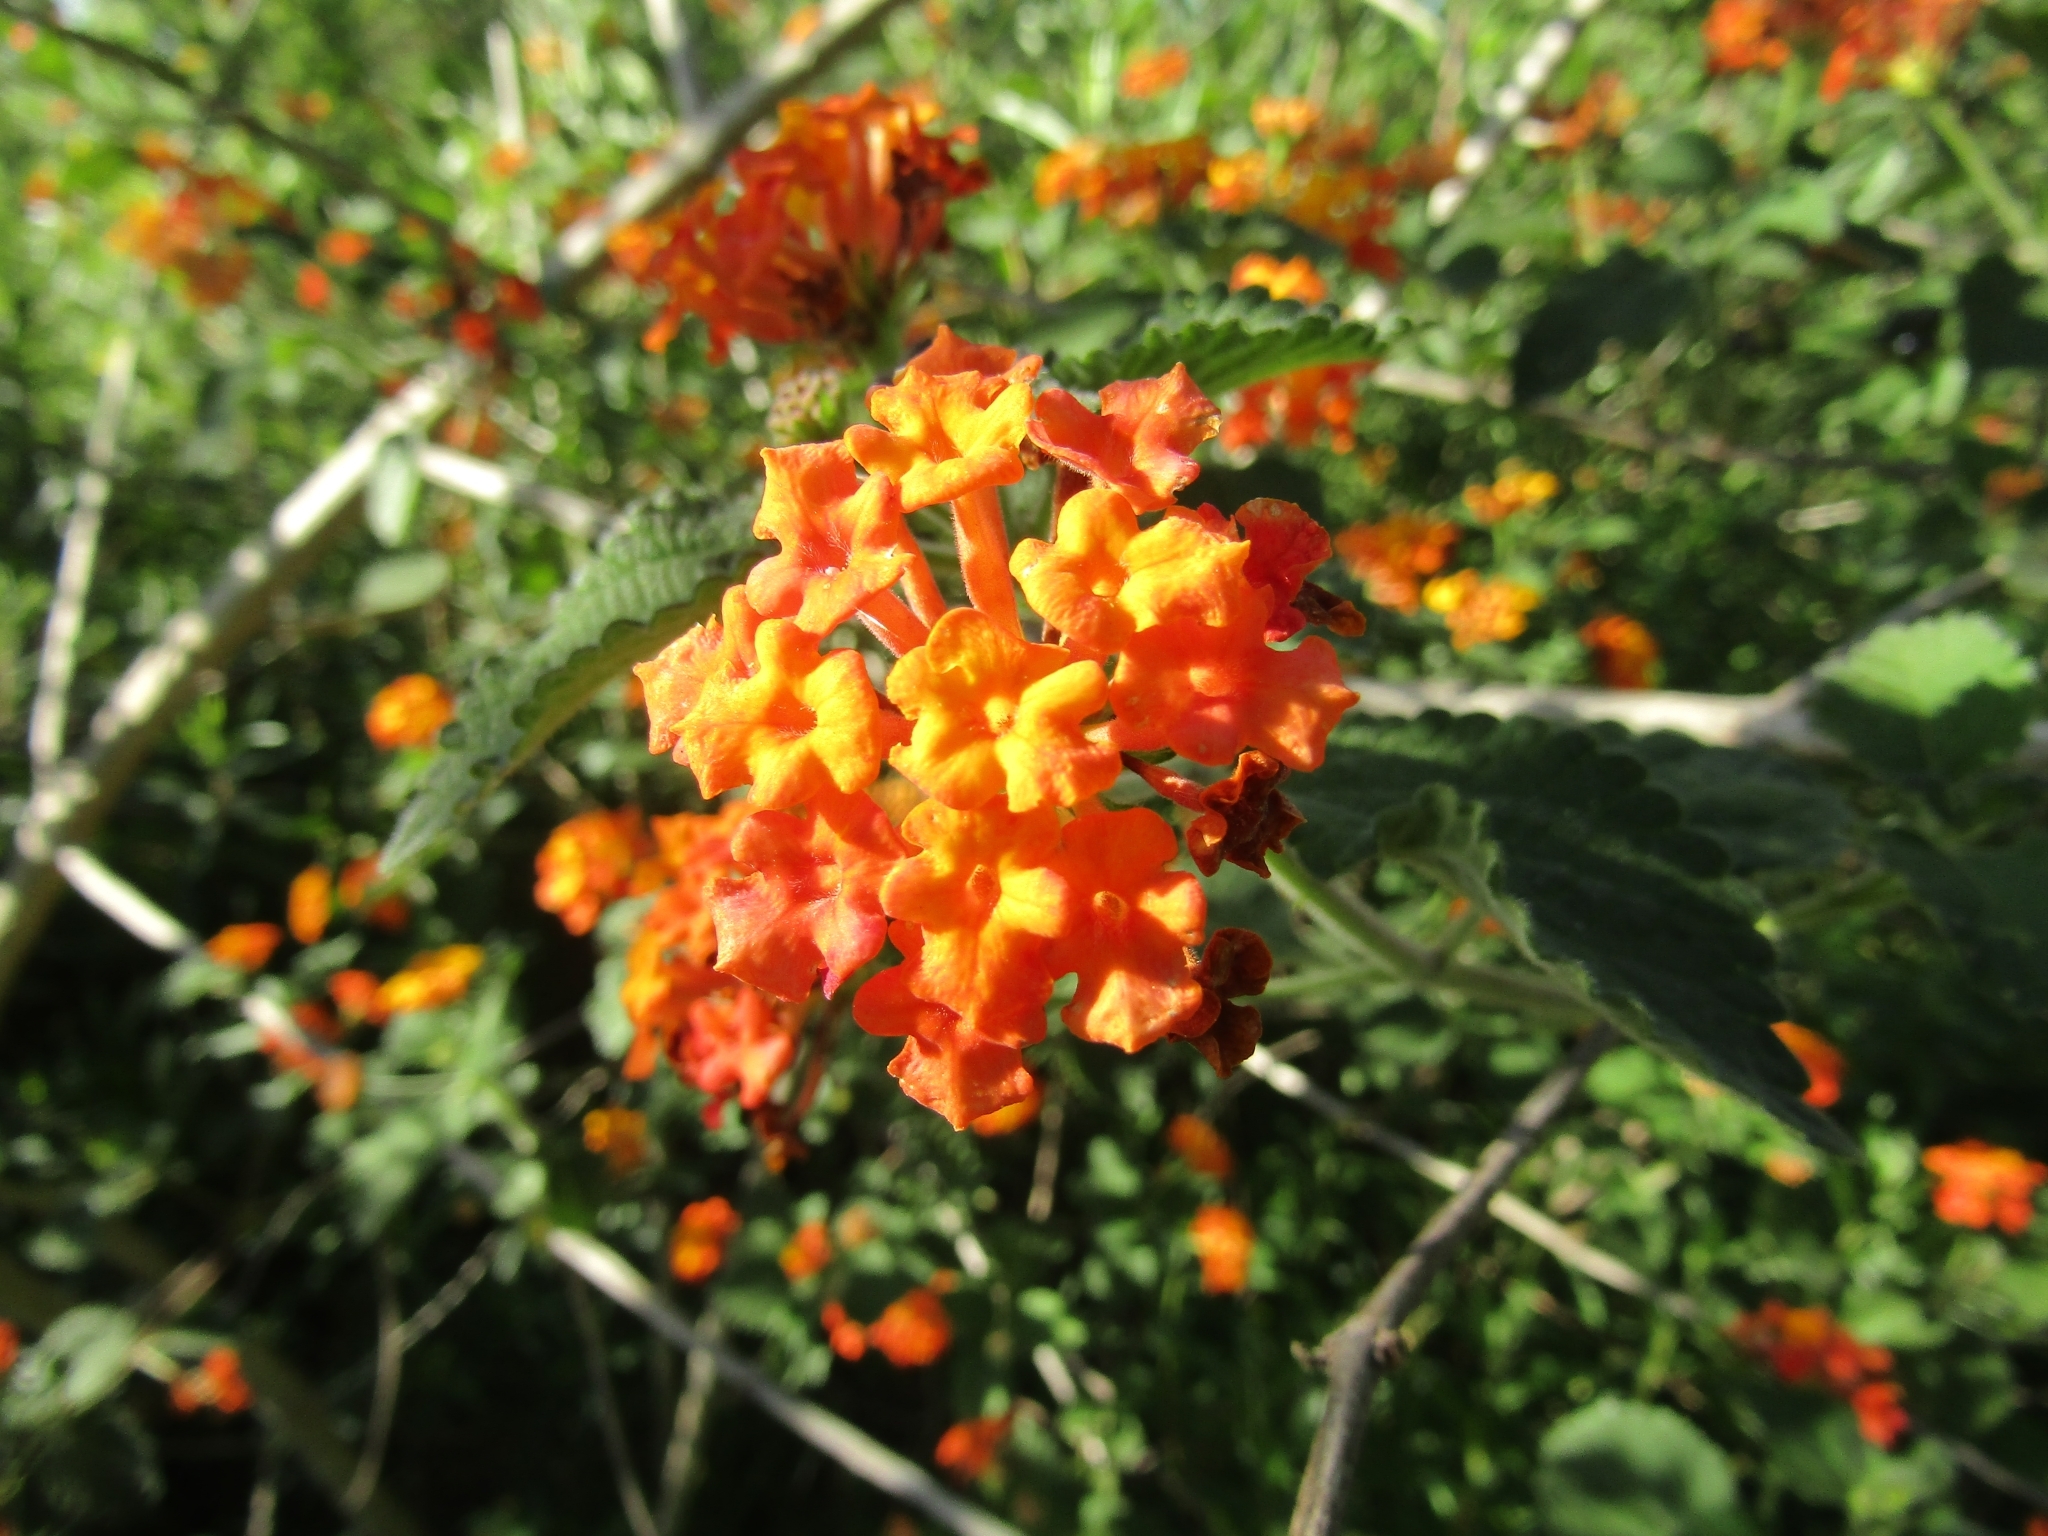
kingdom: Plantae
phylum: Tracheophyta
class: Magnoliopsida
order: Lamiales
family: Verbenaceae
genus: Lantana
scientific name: Lantana camara
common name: Lantana
